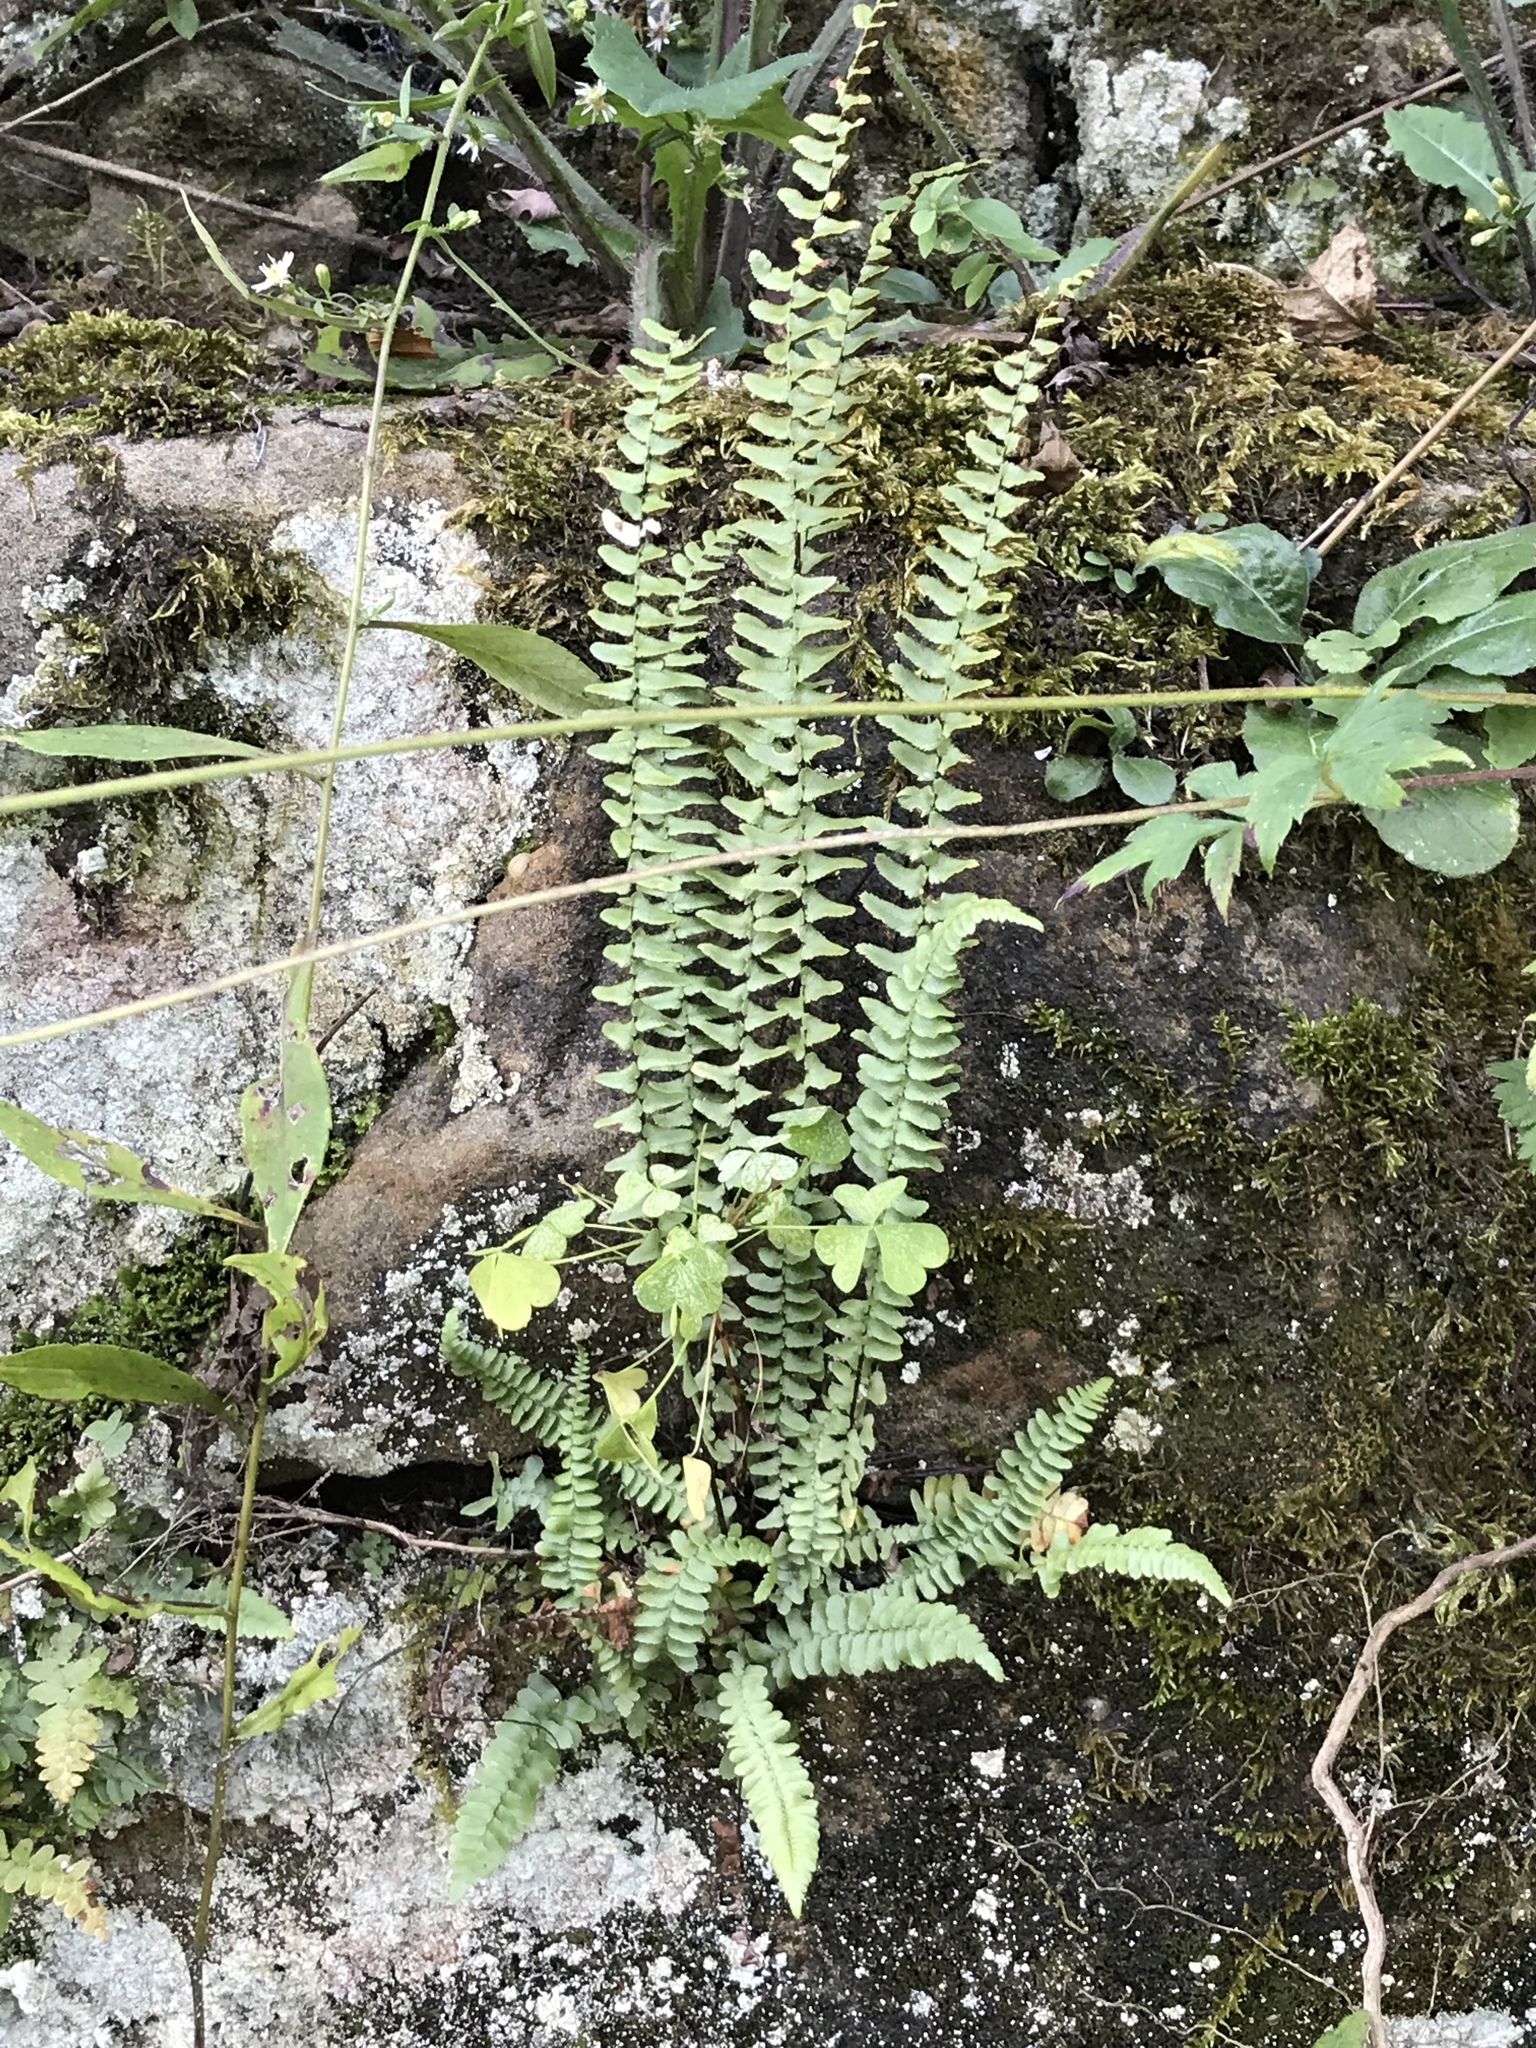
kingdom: Plantae
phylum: Tracheophyta
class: Polypodiopsida
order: Polypodiales
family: Aspleniaceae
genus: Asplenium
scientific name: Asplenium platyneuron
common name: Ebony spleenwort
